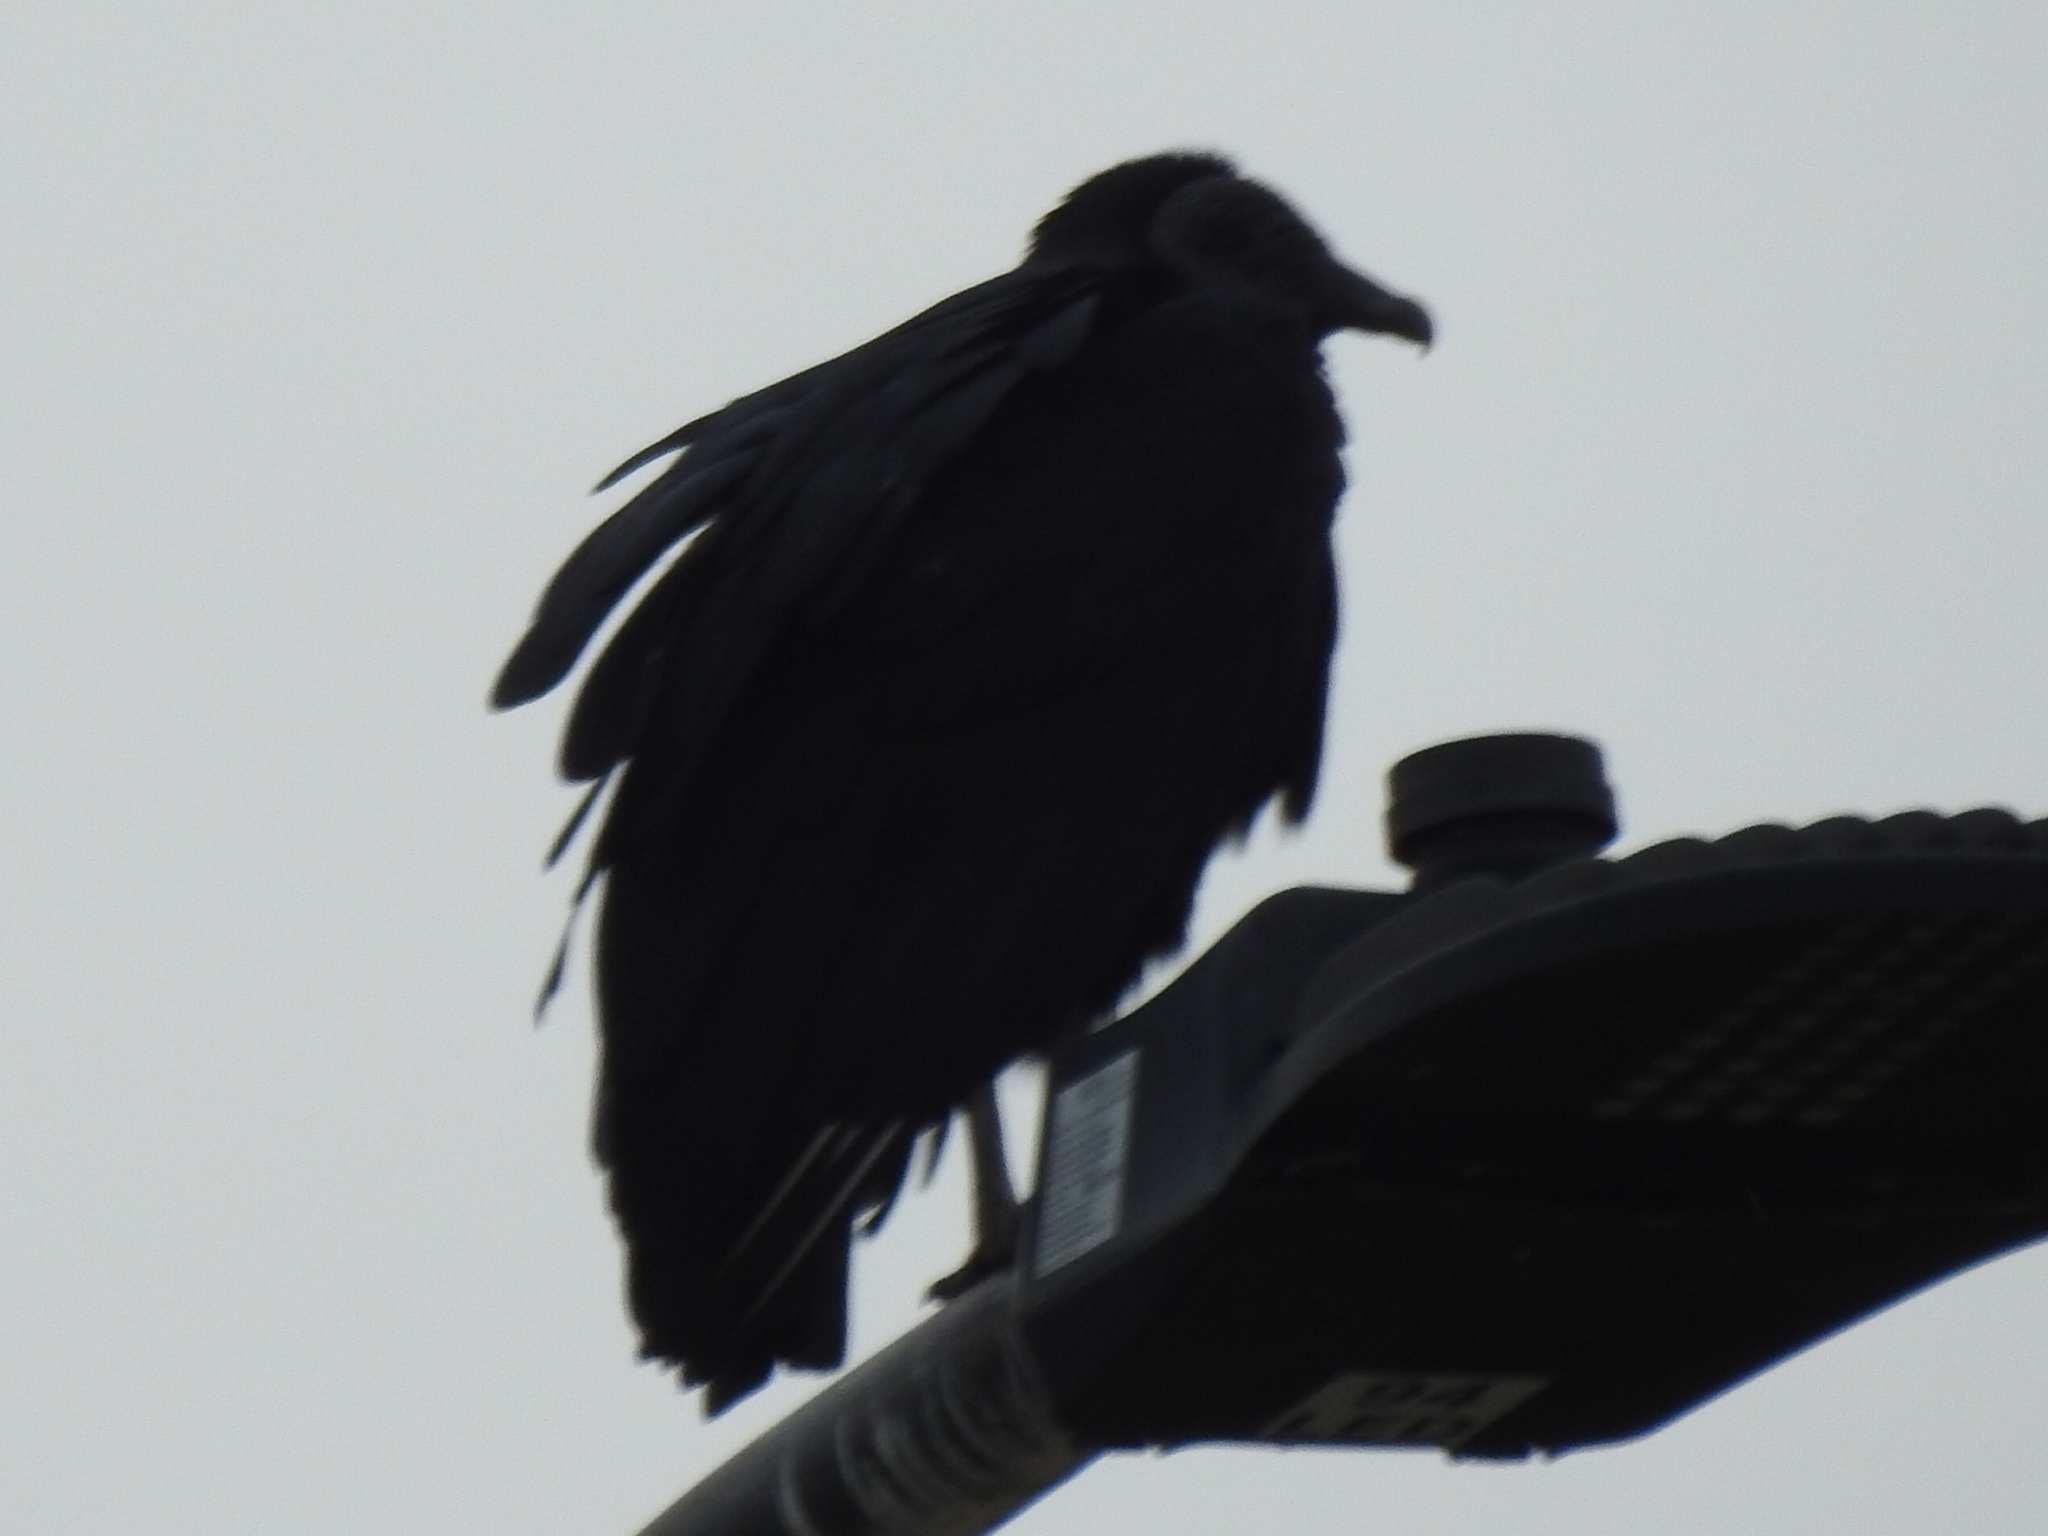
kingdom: Animalia
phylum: Chordata
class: Aves
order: Accipitriformes
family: Cathartidae
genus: Coragyps
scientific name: Coragyps atratus
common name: Black vulture
